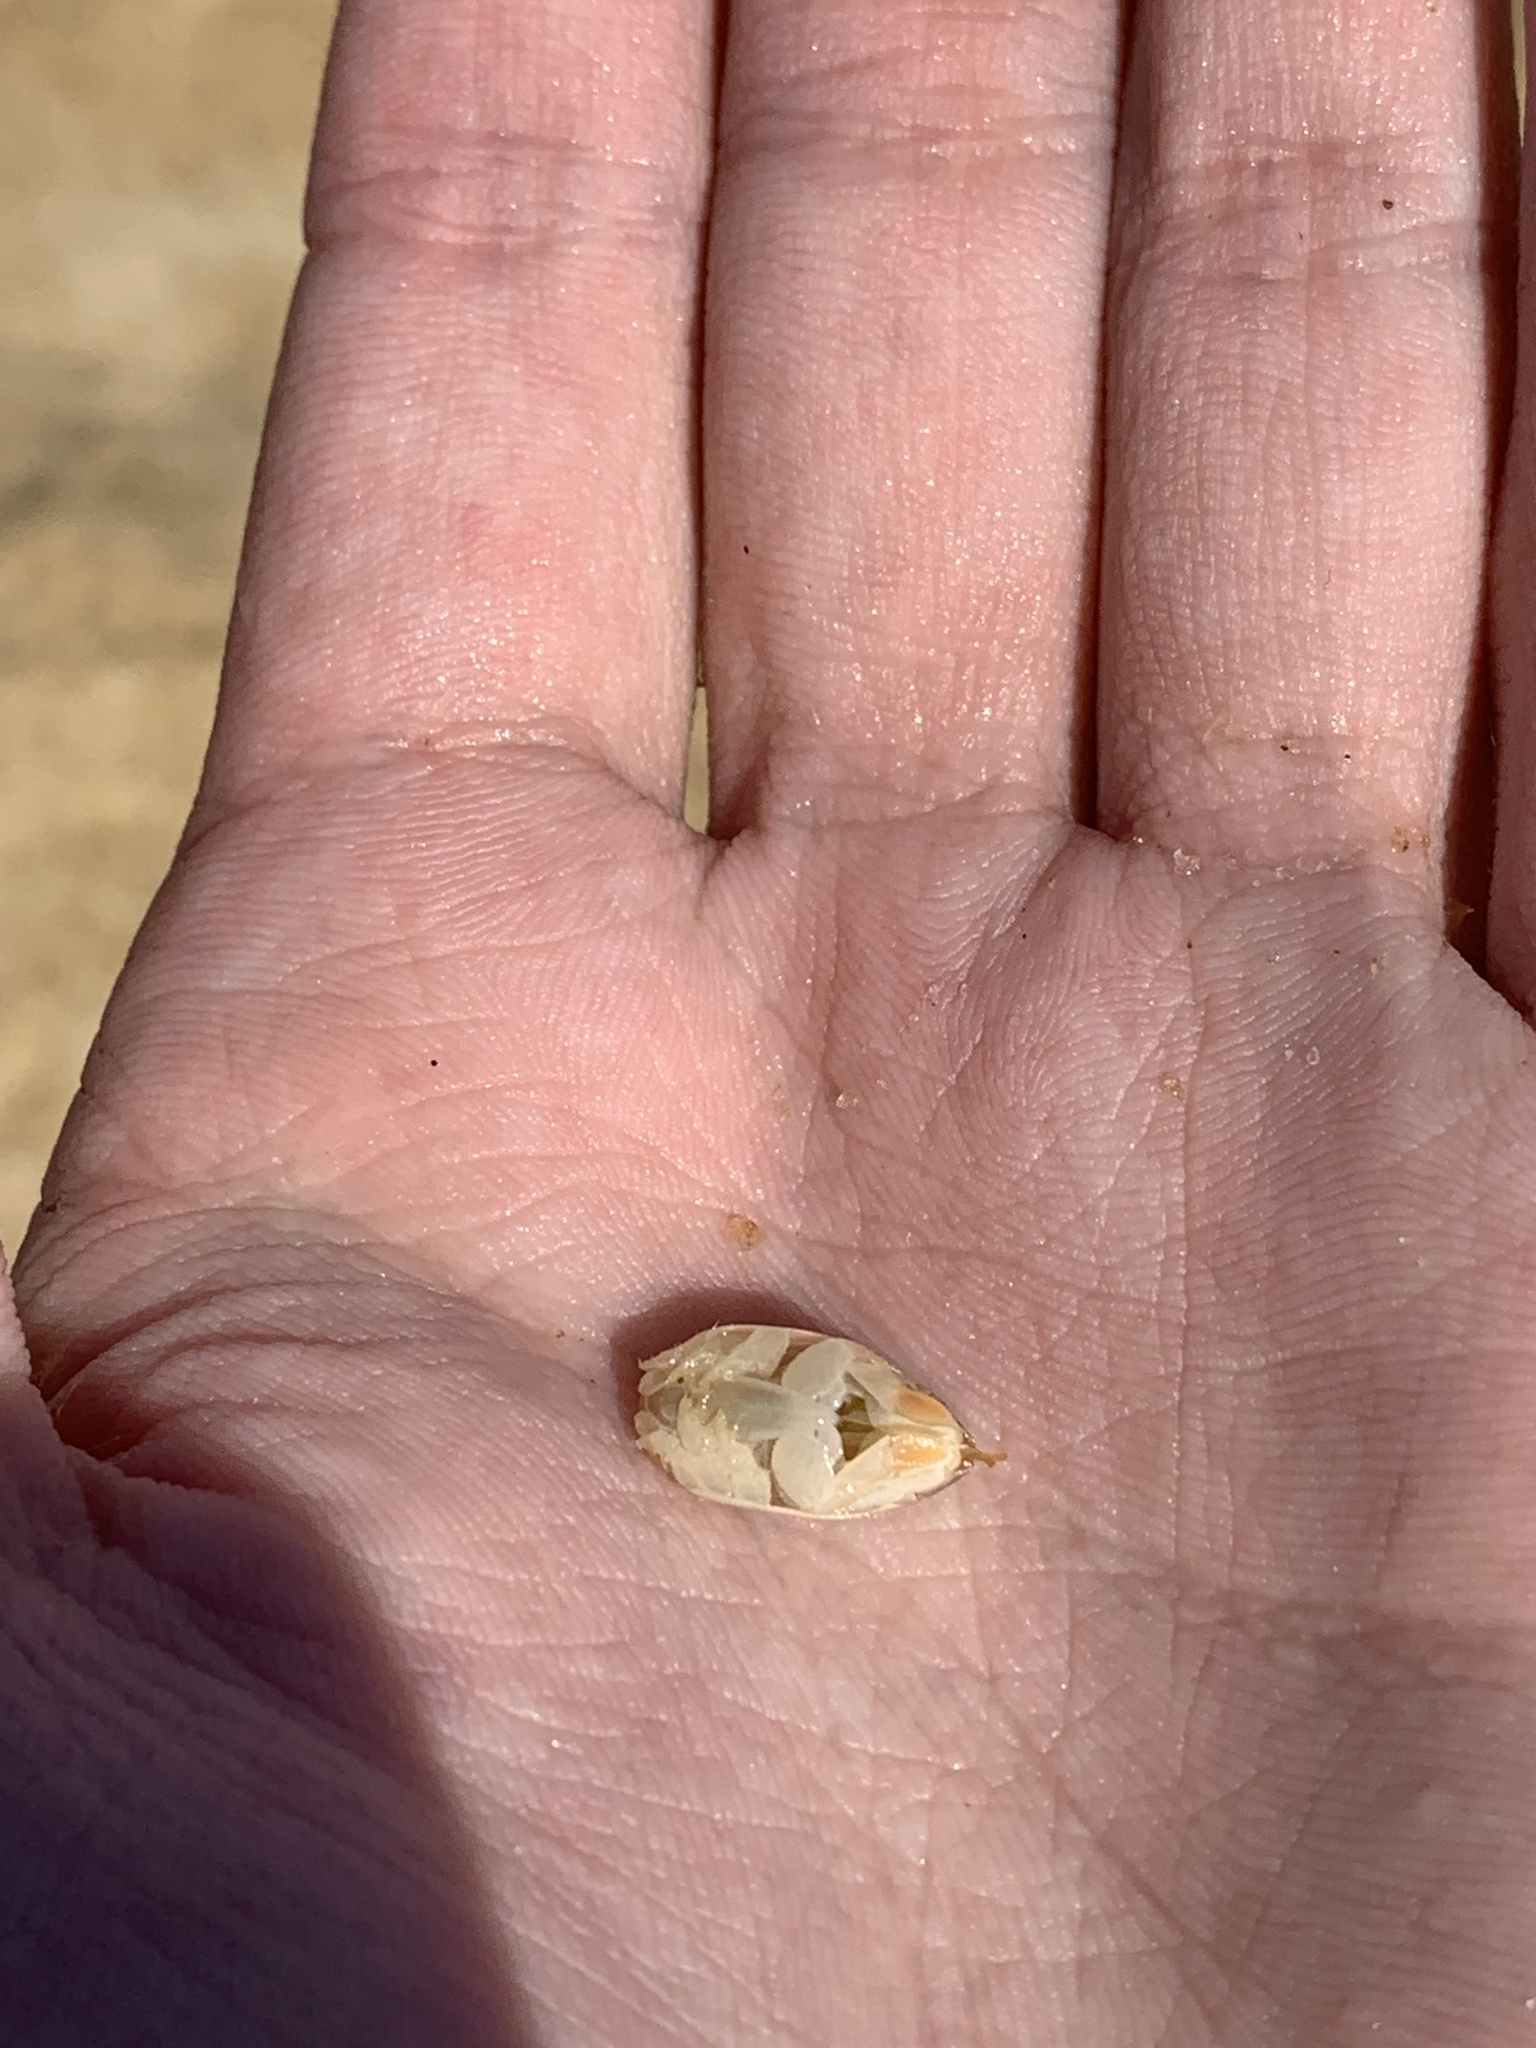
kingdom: Animalia
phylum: Arthropoda
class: Malacostraca
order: Decapoda
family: Hippidae
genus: Emerita
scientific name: Emerita brasiliensis
